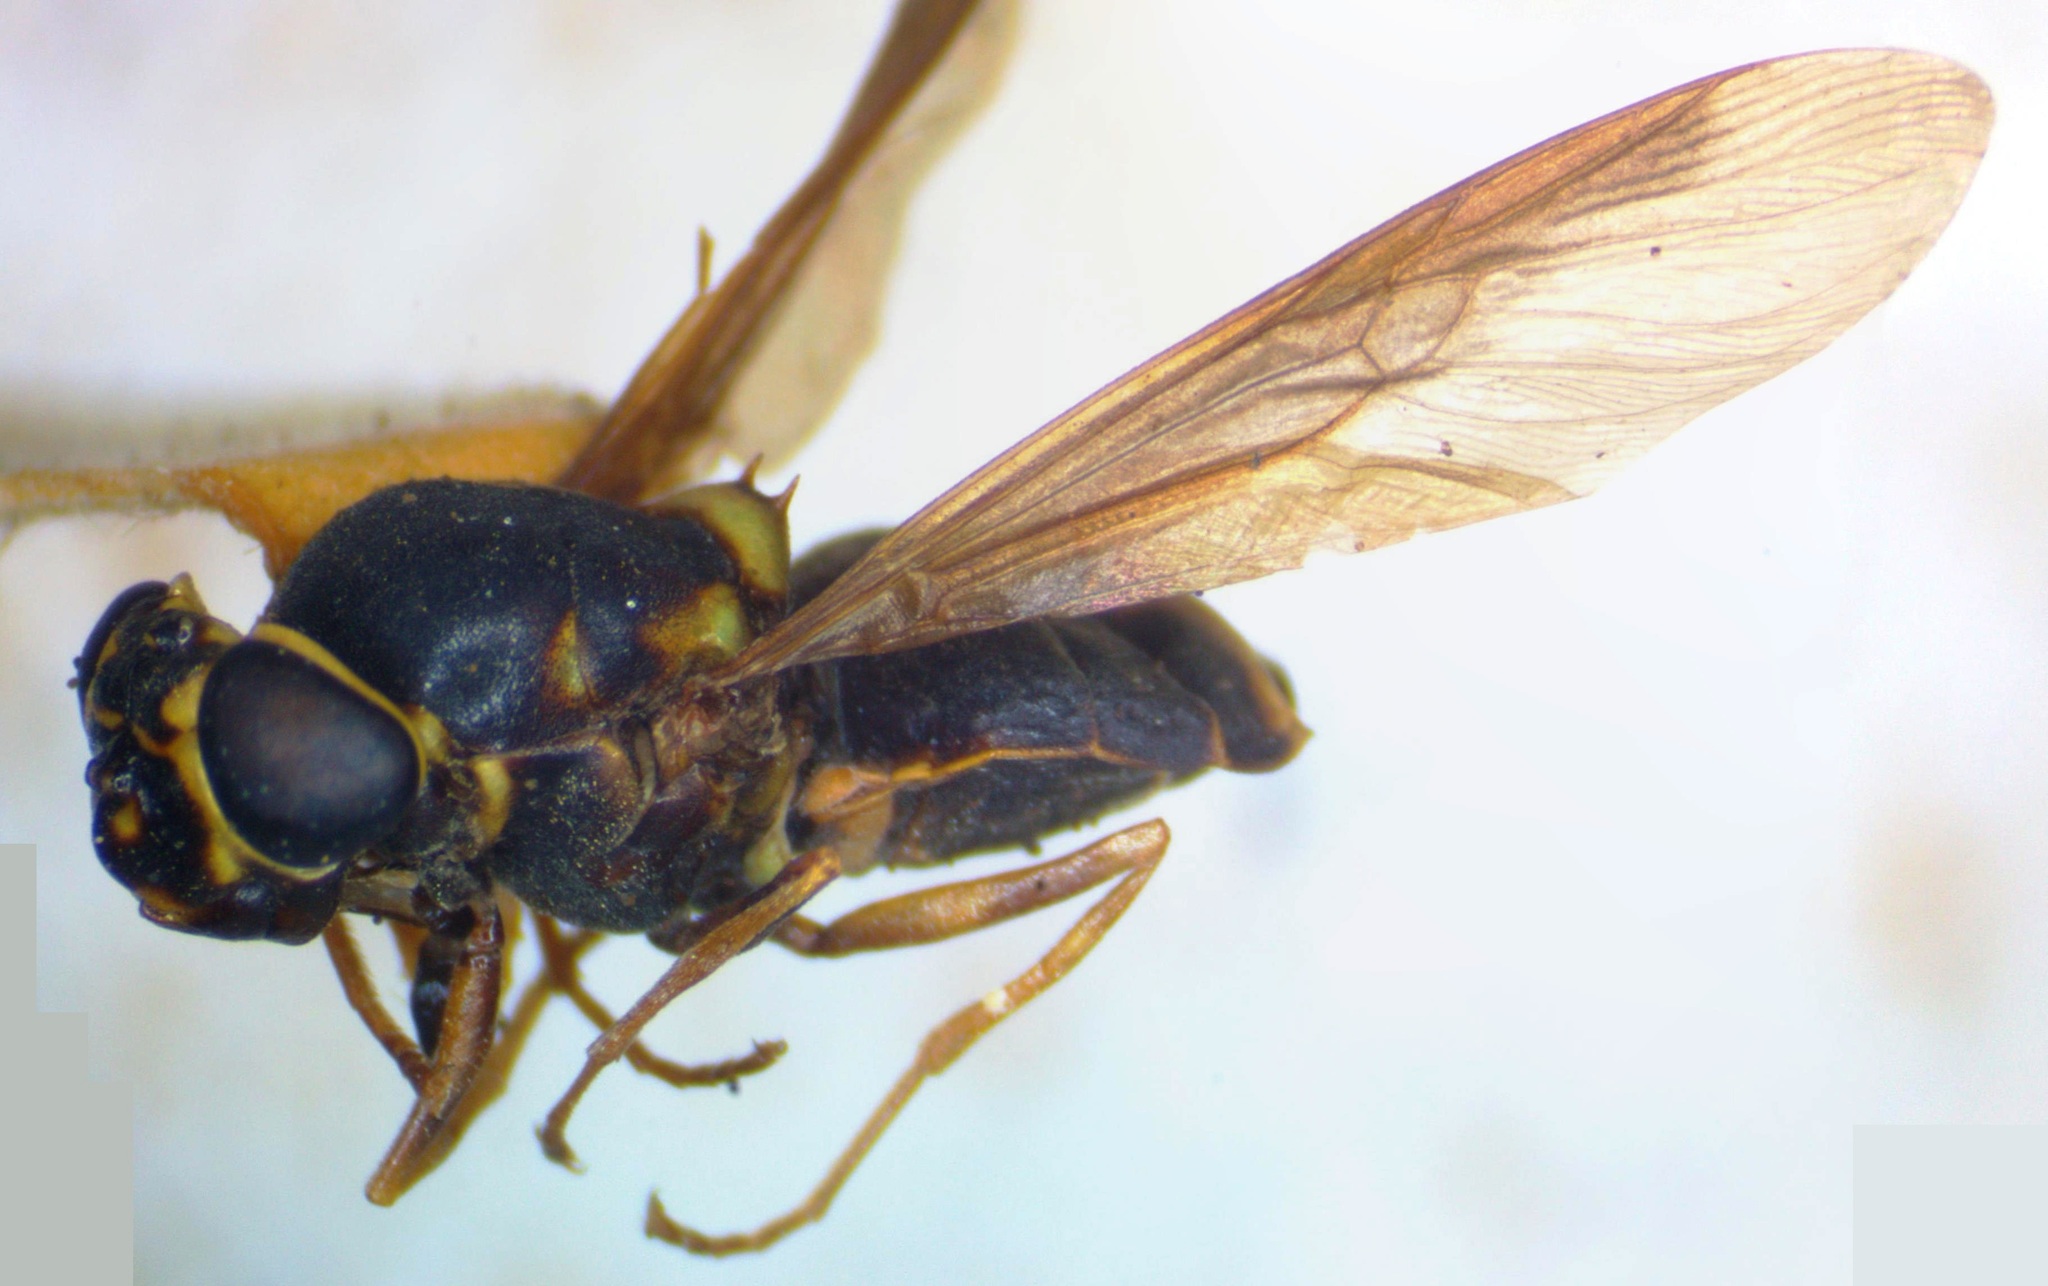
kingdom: Animalia
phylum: Arthropoda
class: Insecta
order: Diptera
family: Stratiomyidae
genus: Hoplitimyia
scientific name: Hoplitimyia mutabilis
